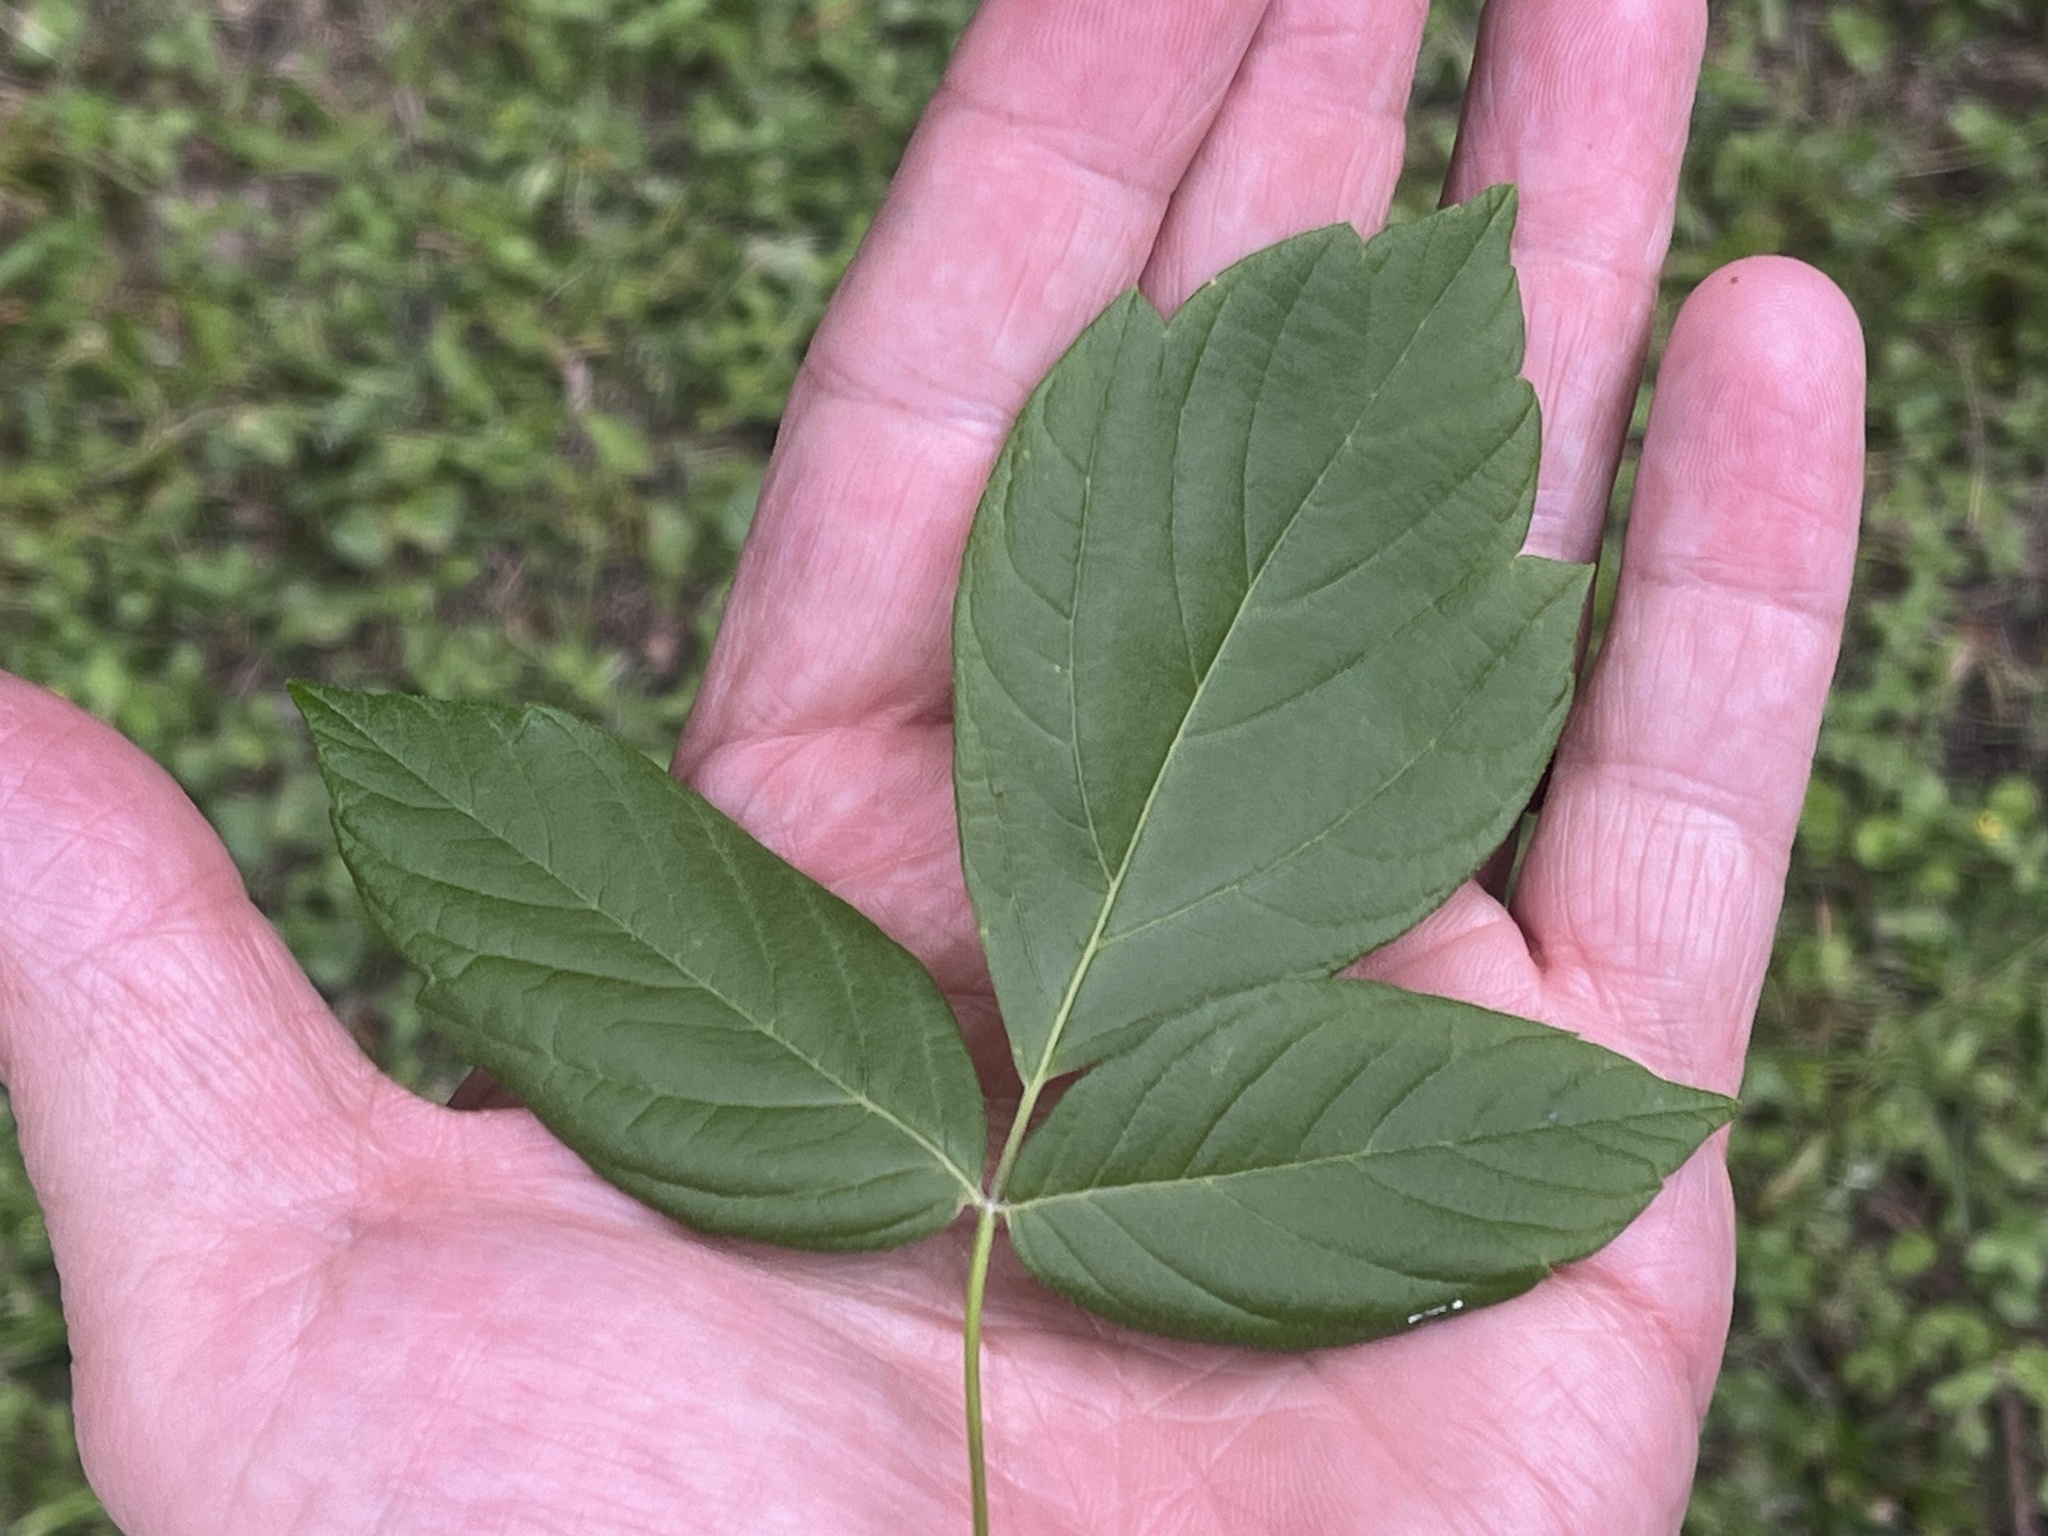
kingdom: Plantae
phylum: Tracheophyta
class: Magnoliopsida
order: Sapindales
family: Sapindaceae
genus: Acer
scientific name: Acer negundo
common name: Ashleaf maple
